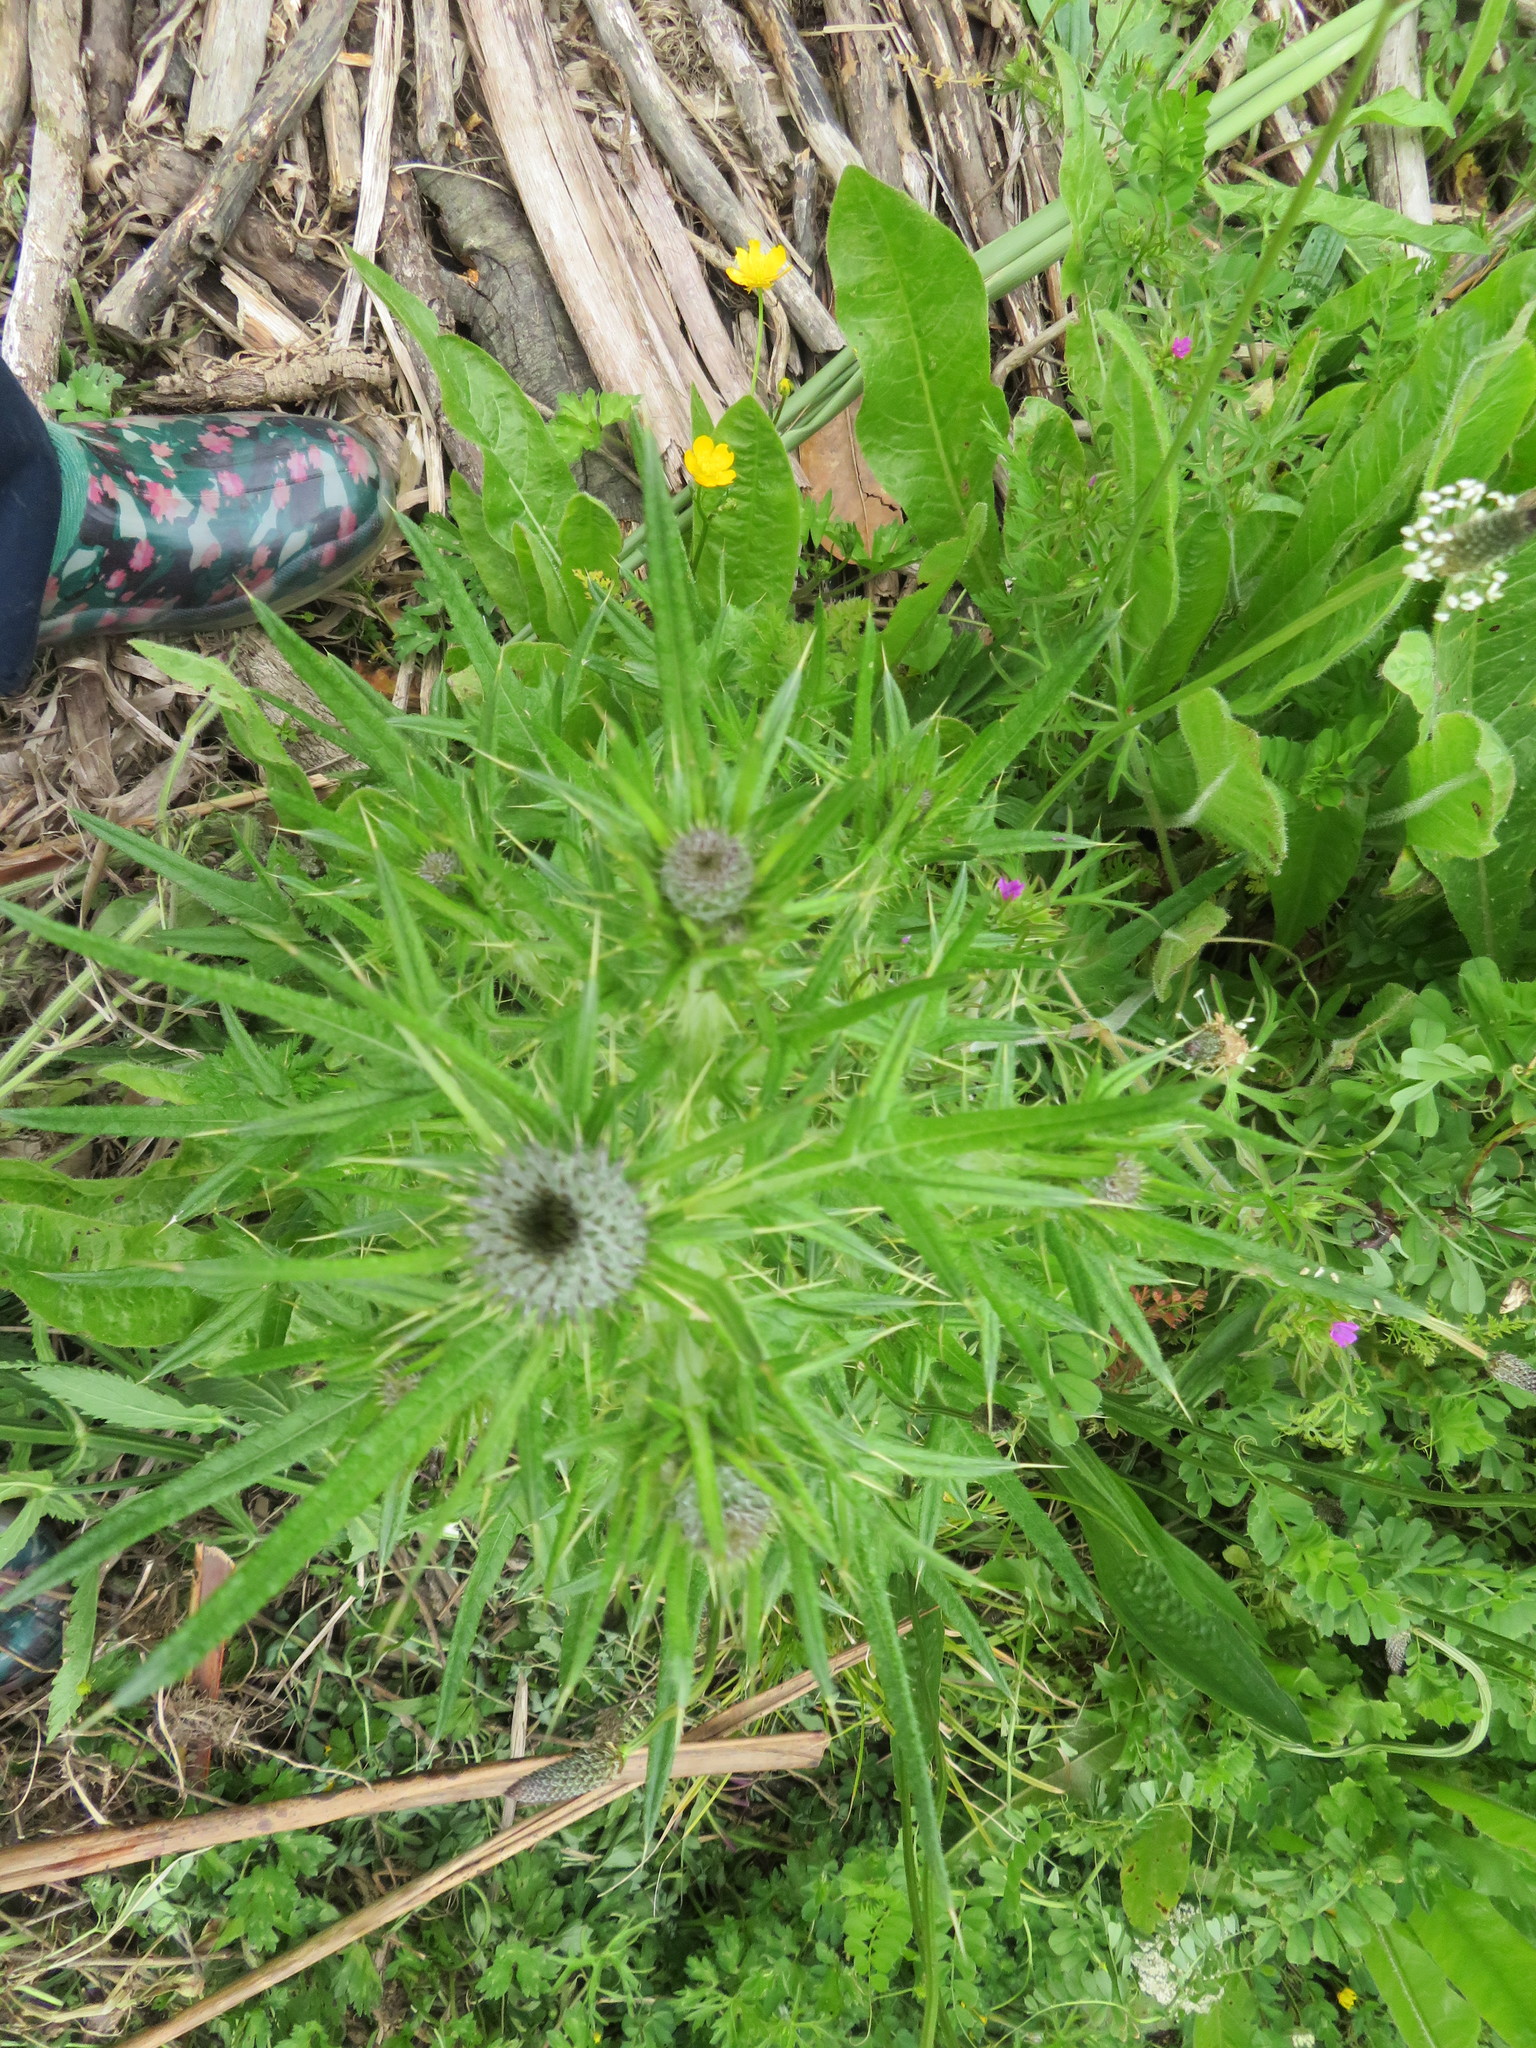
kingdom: Plantae
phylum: Tracheophyta
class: Magnoliopsida
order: Asterales
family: Asteraceae
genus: Cirsium
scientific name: Cirsium vulgare
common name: Bull thistle
